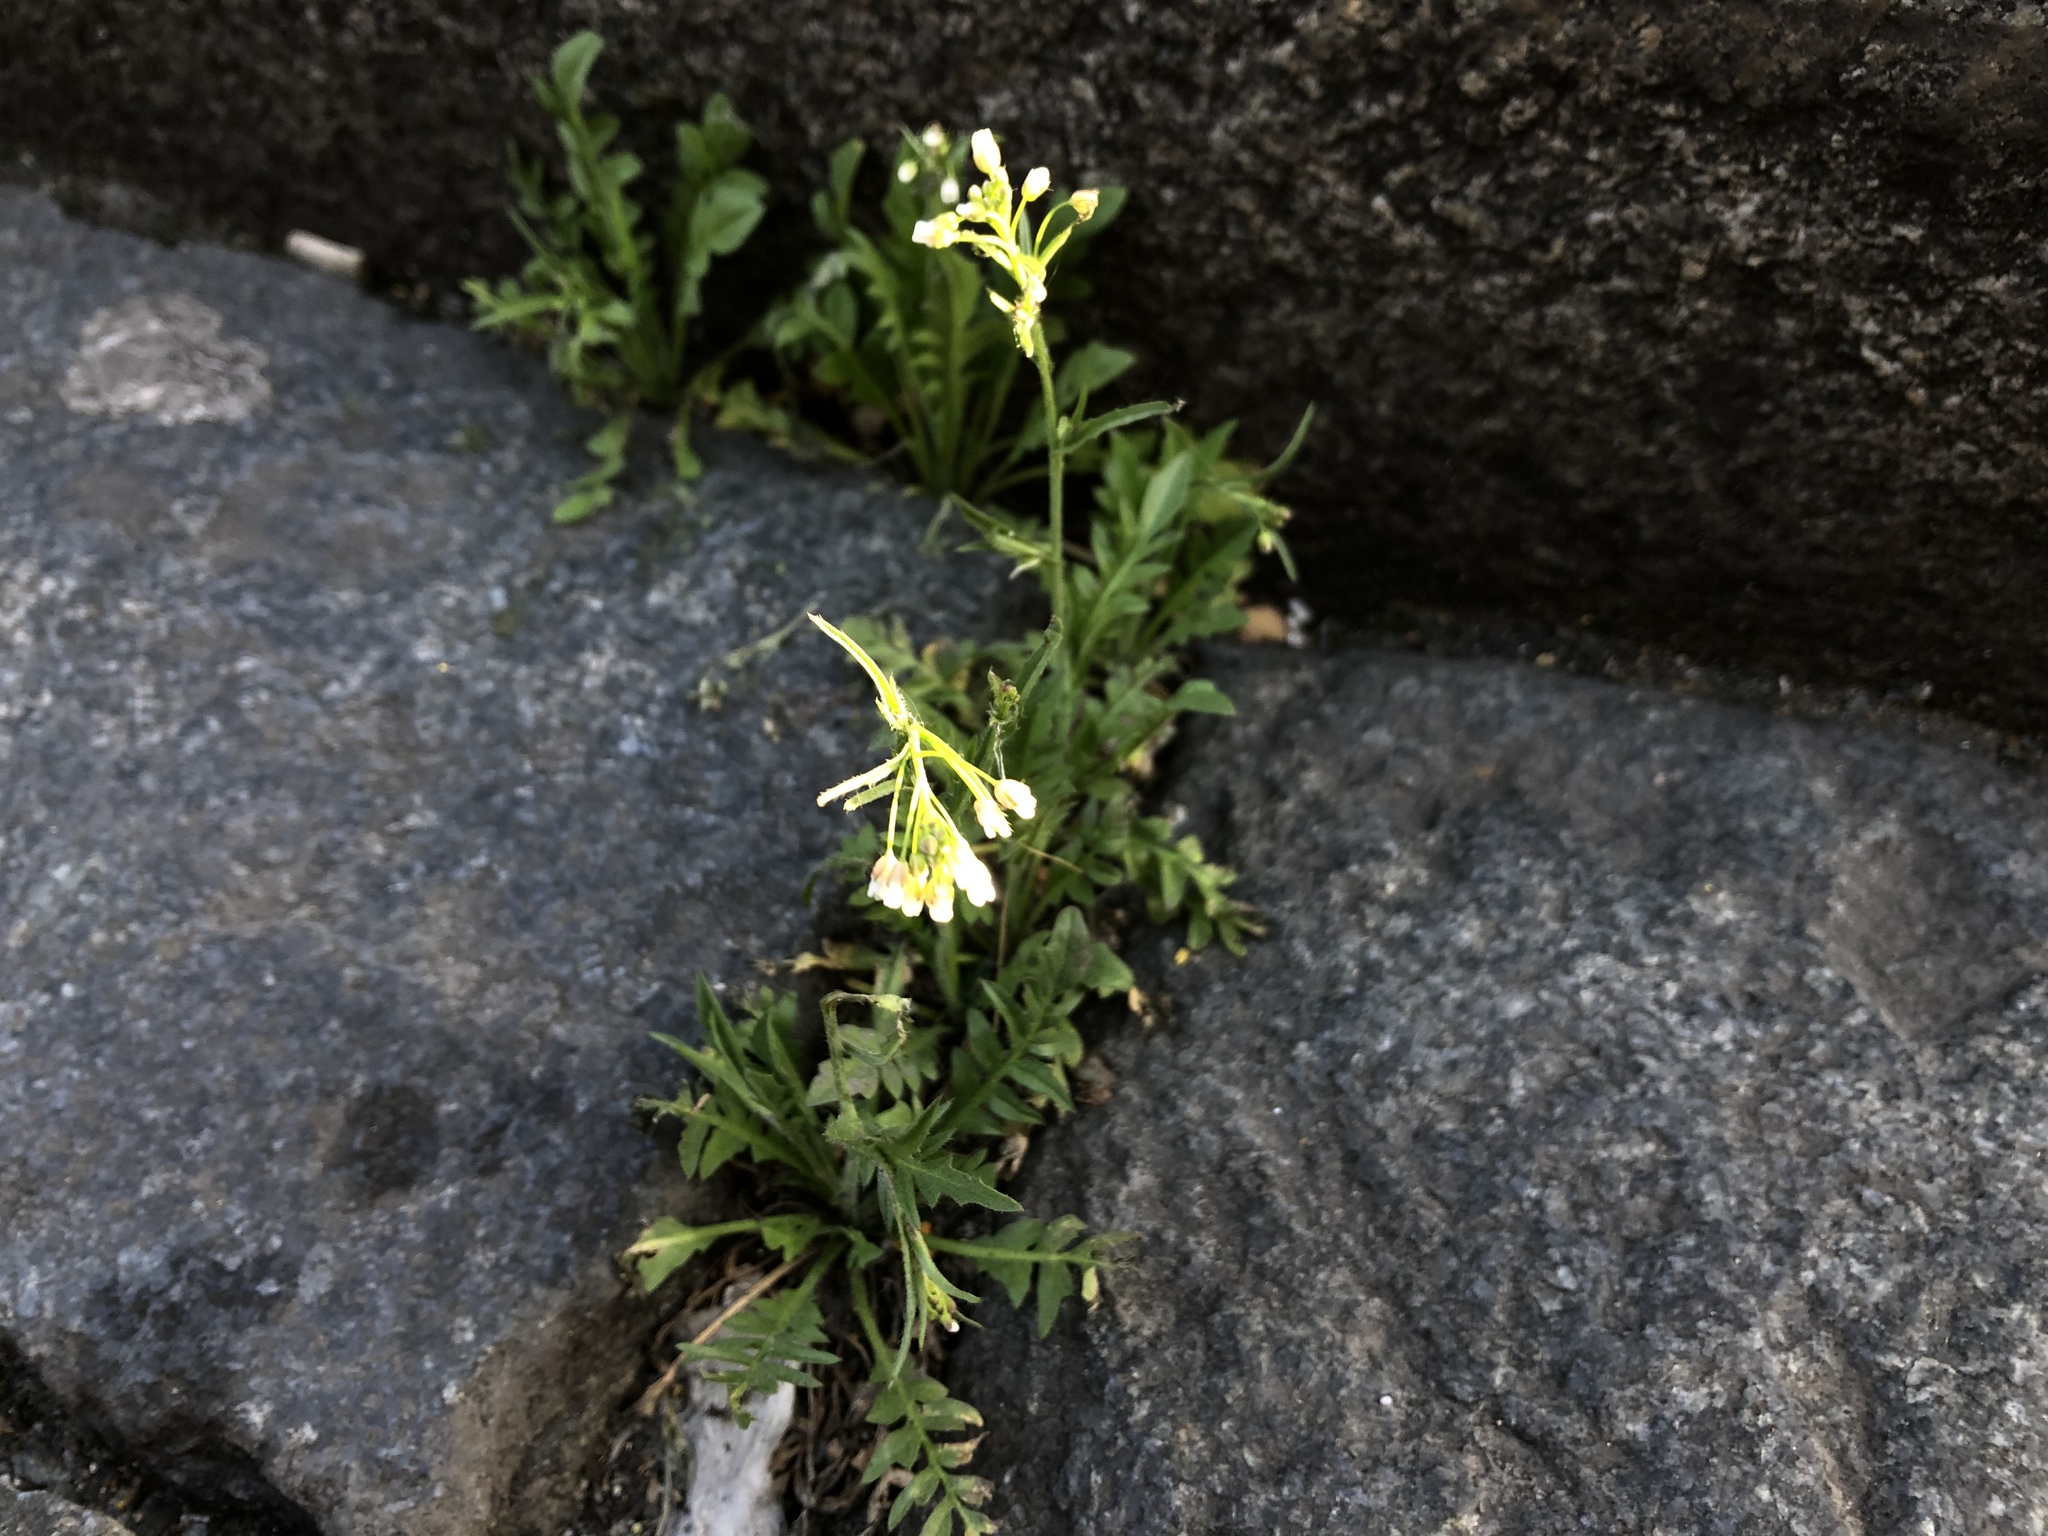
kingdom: Plantae
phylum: Tracheophyta
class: Magnoliopsida
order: Brassicales
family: Brassicaceae
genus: Capsella
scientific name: Capsella bursa-pastoris
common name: Shepherd's purse
